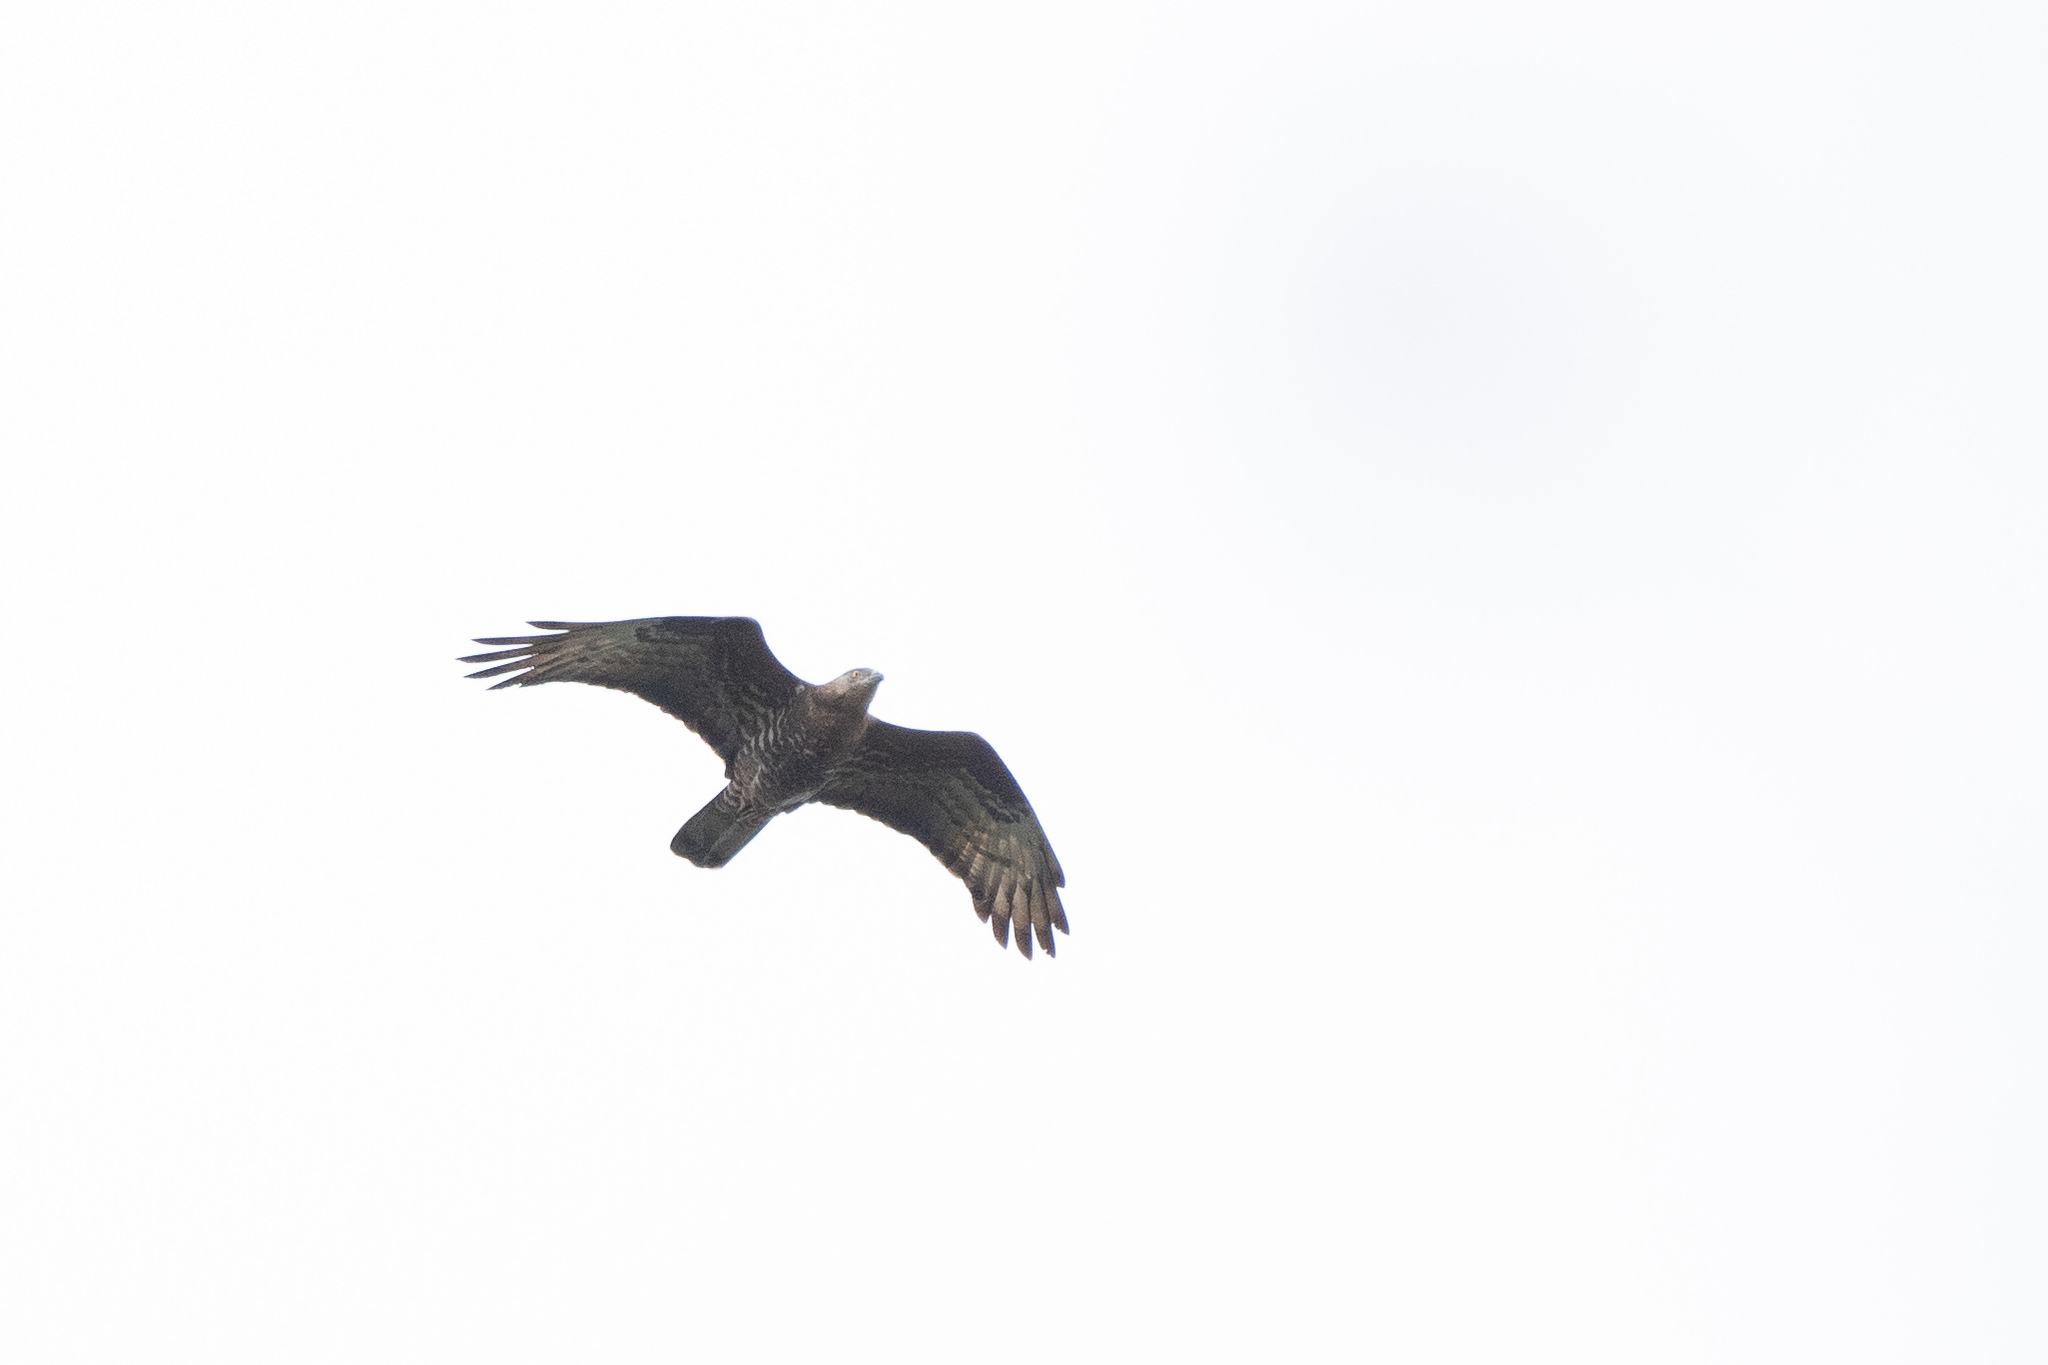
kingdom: Animalia
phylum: Chordata
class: Aves
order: Accipitriformes
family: Accipitridae
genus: Pernis
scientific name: Pernis apivorus
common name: European honey buzzard
